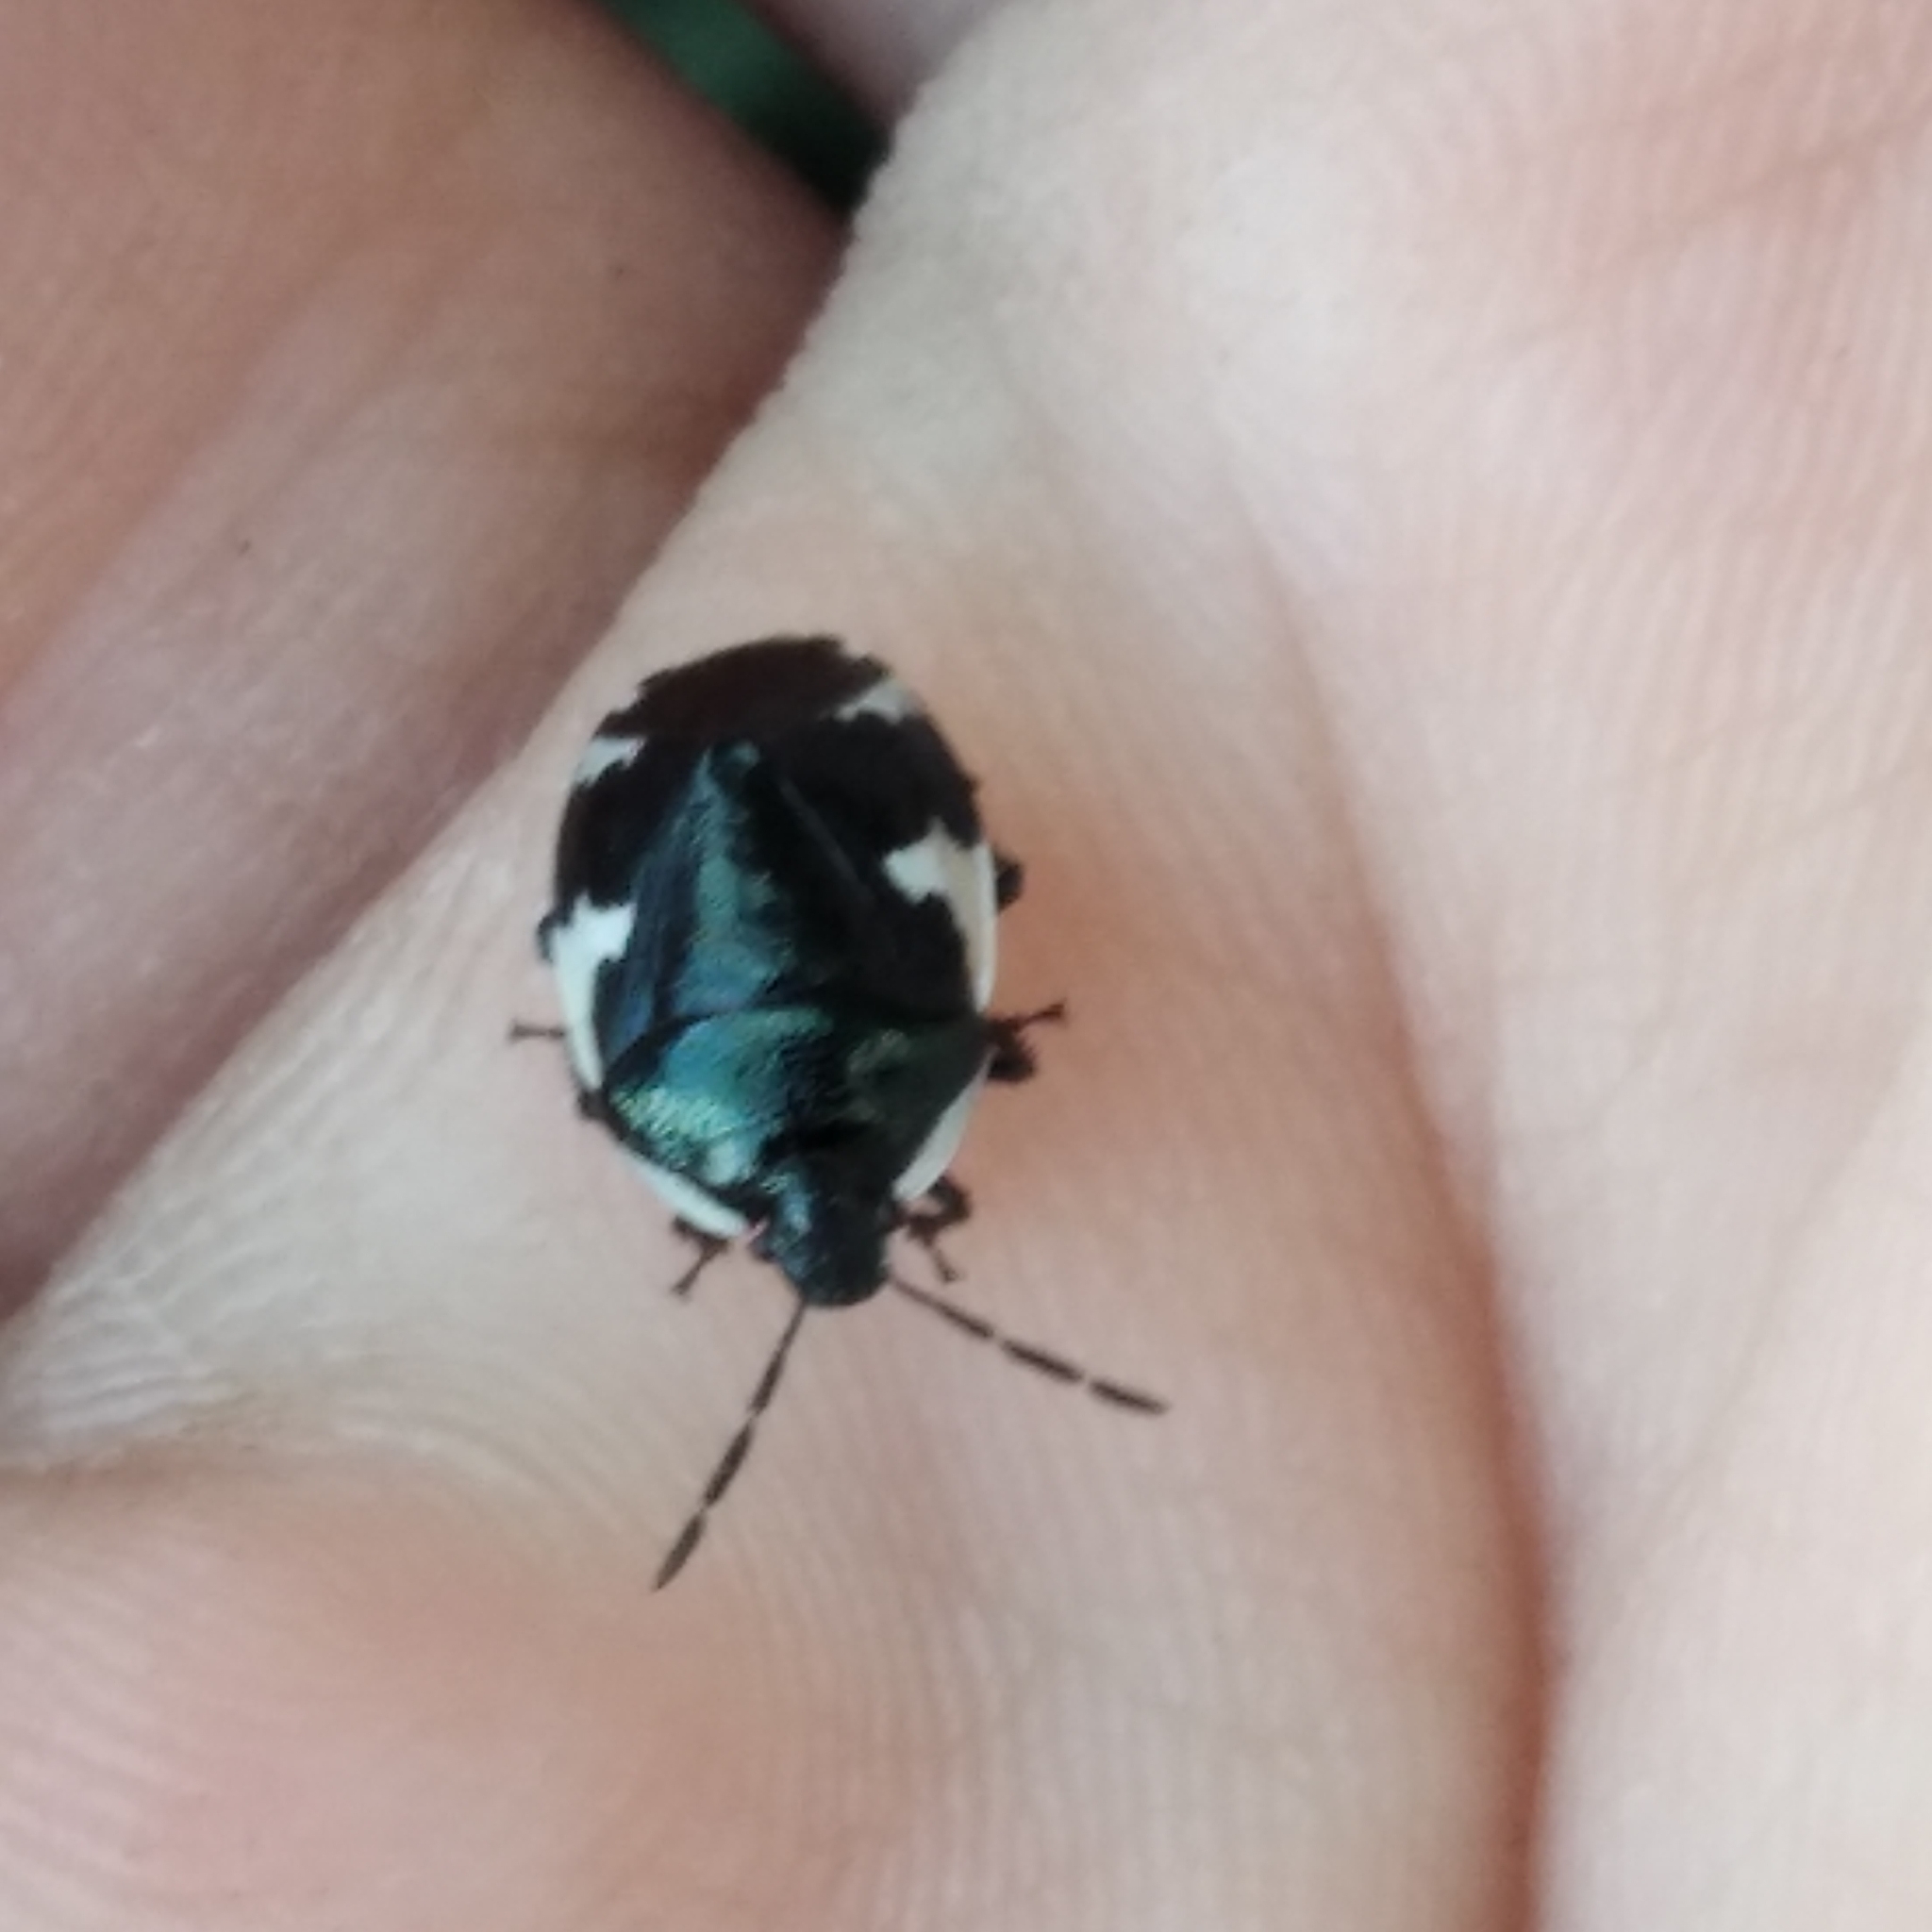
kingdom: Animalia
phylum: Arthropoda
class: Insecta
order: Hemiptera
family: Cydnidae
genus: Tritomegas
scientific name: Tritomegas sexmaculatus
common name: Rambur's pied shieldbug
